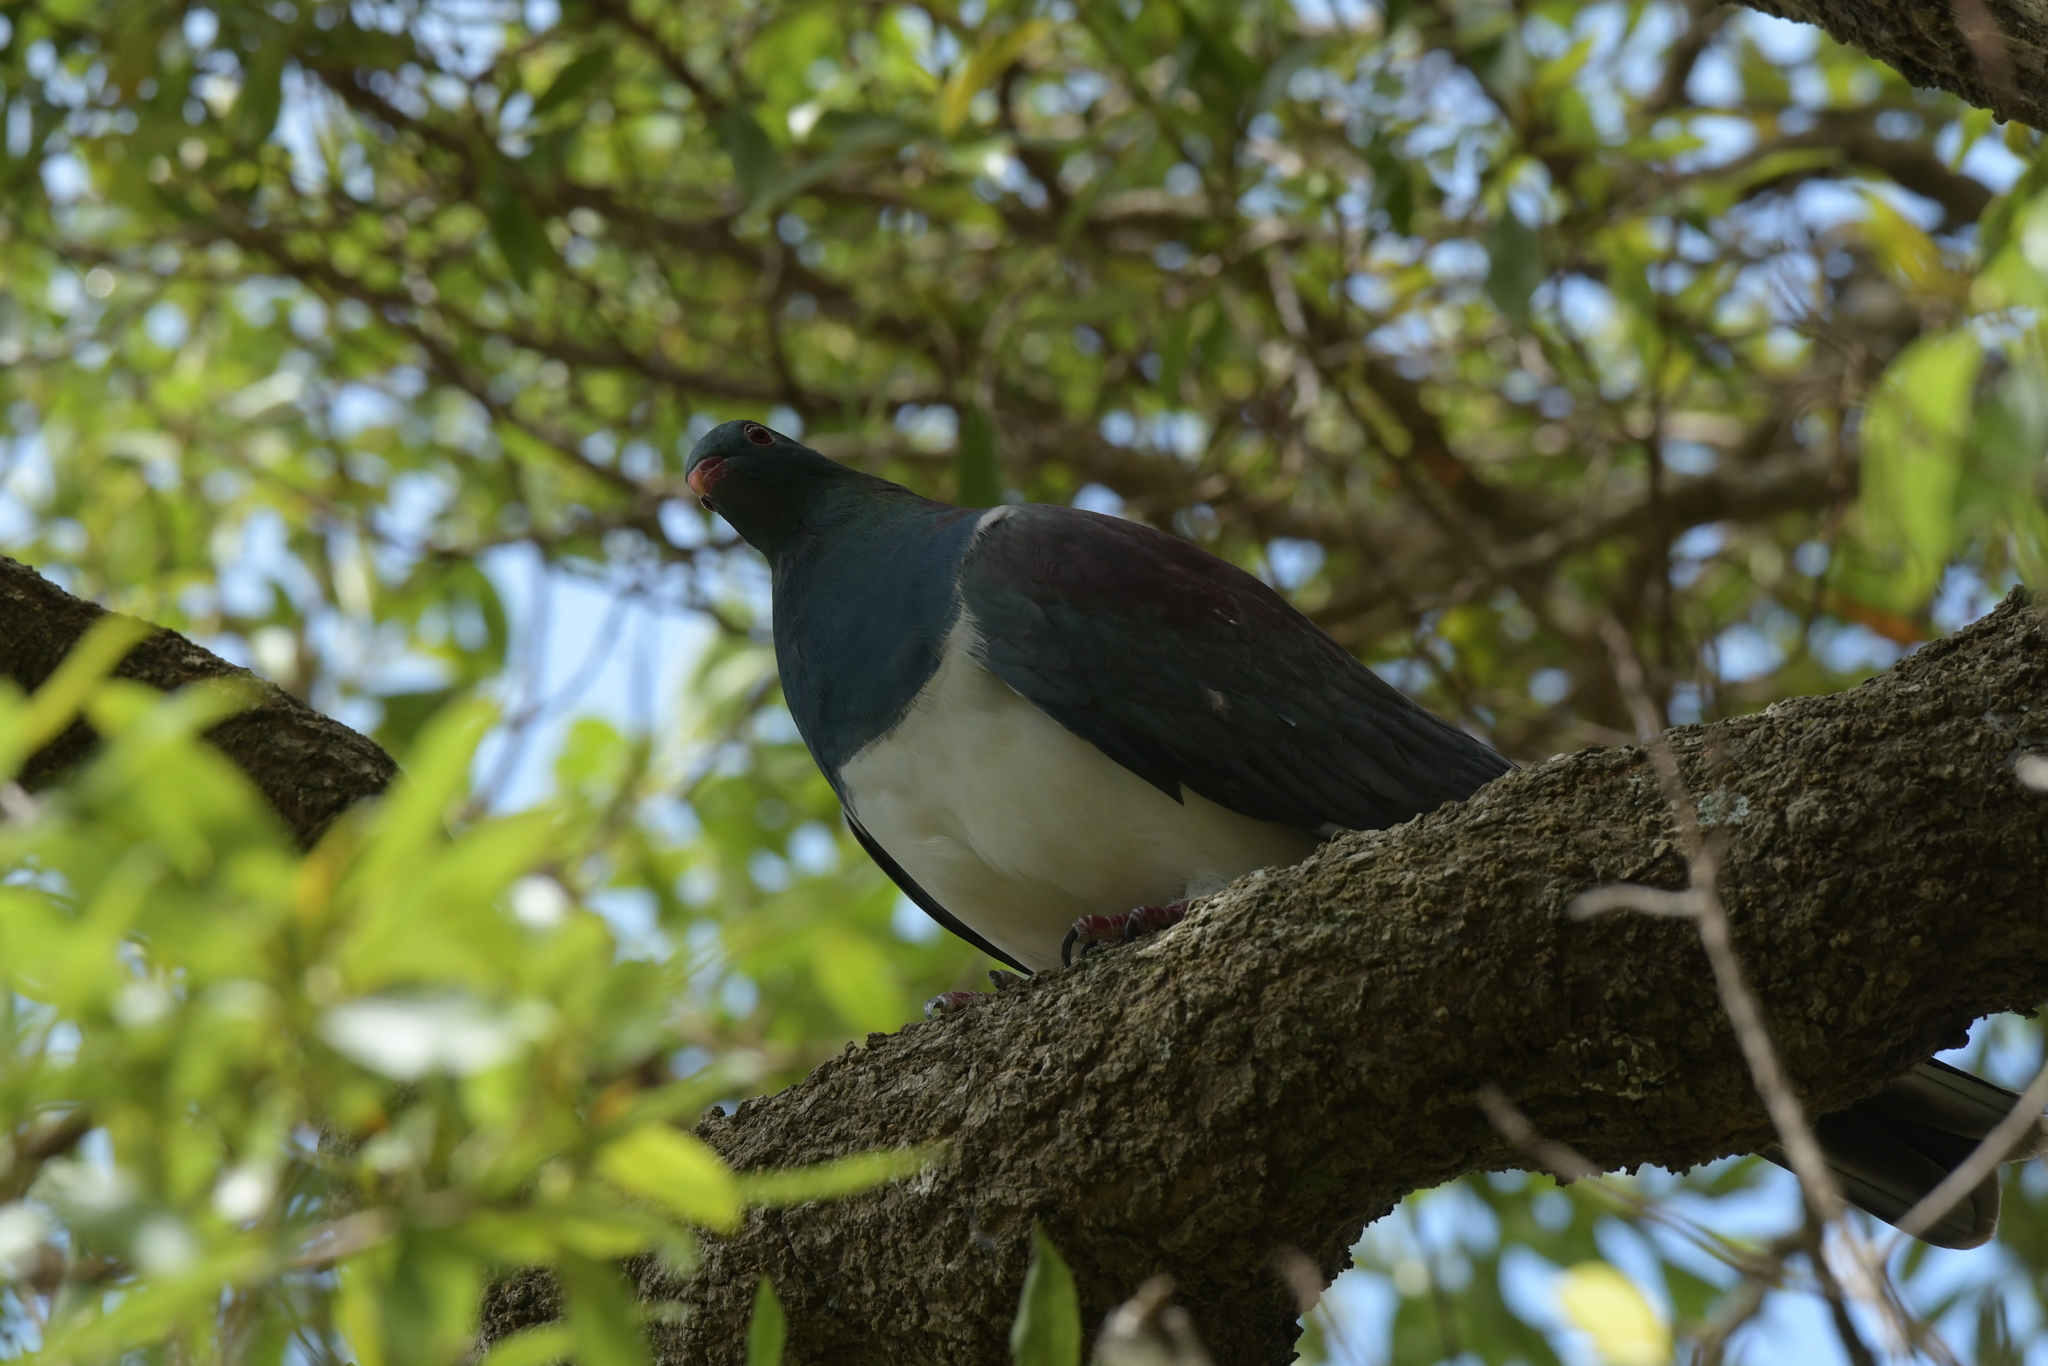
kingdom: Animalia
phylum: Chordata
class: Aves
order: Columbiformes
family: Columbidae
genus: Hemiphaga
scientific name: Hemiphaga novaeseelandiae
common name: New zealand pigeon
